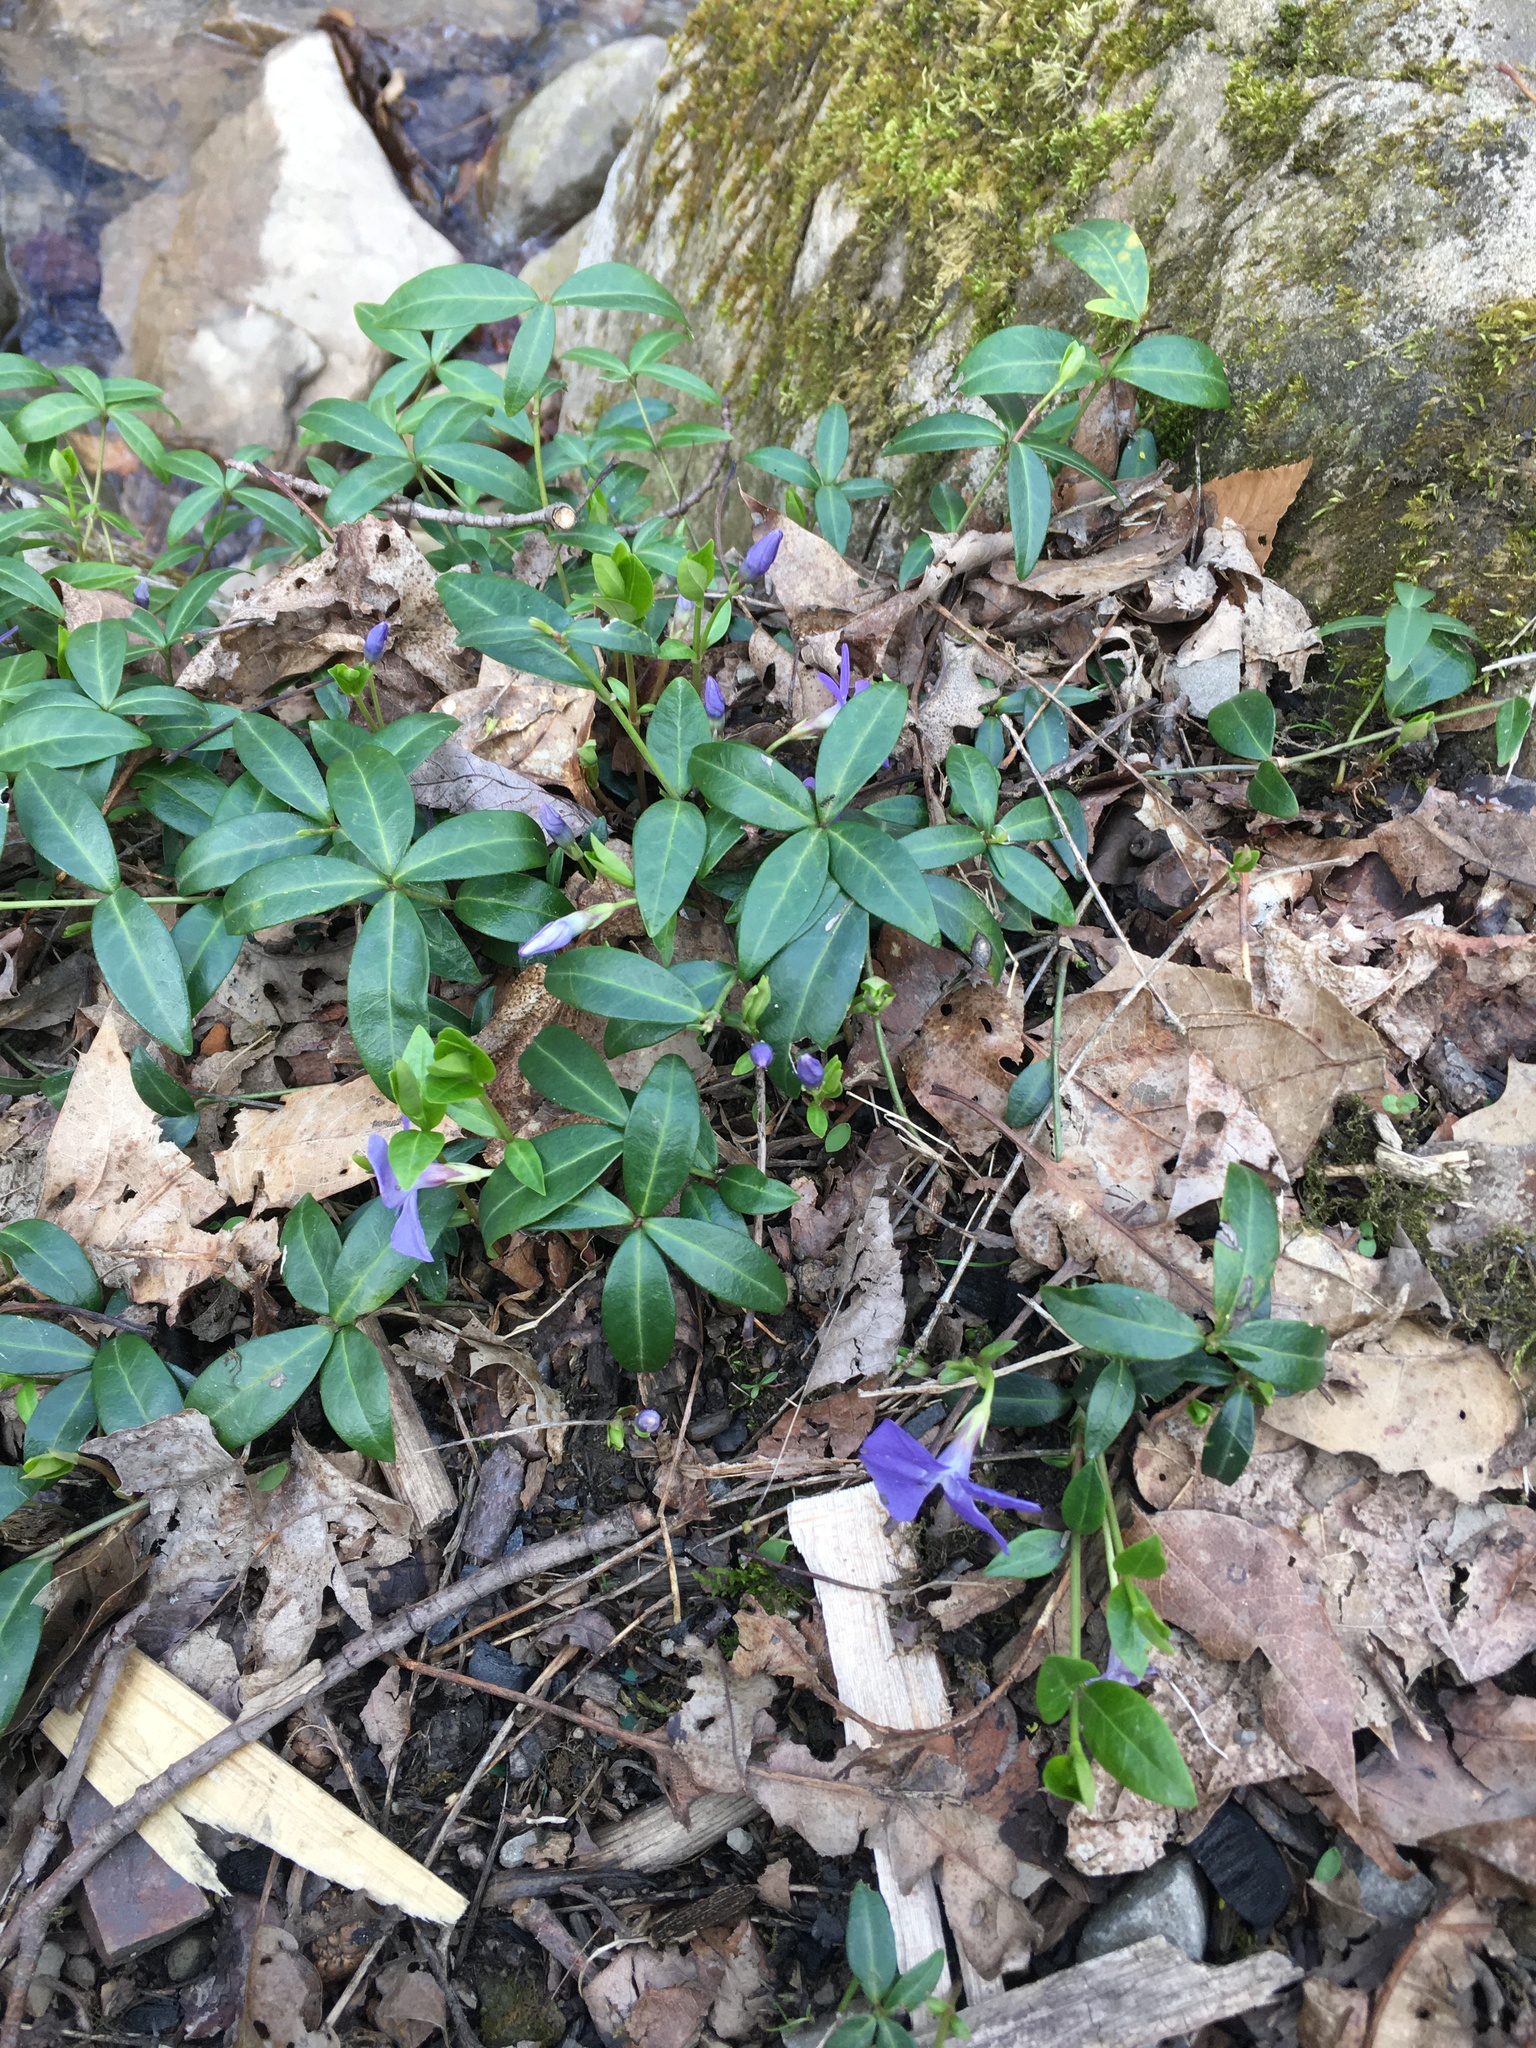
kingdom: Plantae
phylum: Tracheophyta
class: Magnoliopsida
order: Gentianales
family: Apocynaceae
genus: Vinca
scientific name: Vinca minor
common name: Lesser periwinkle
